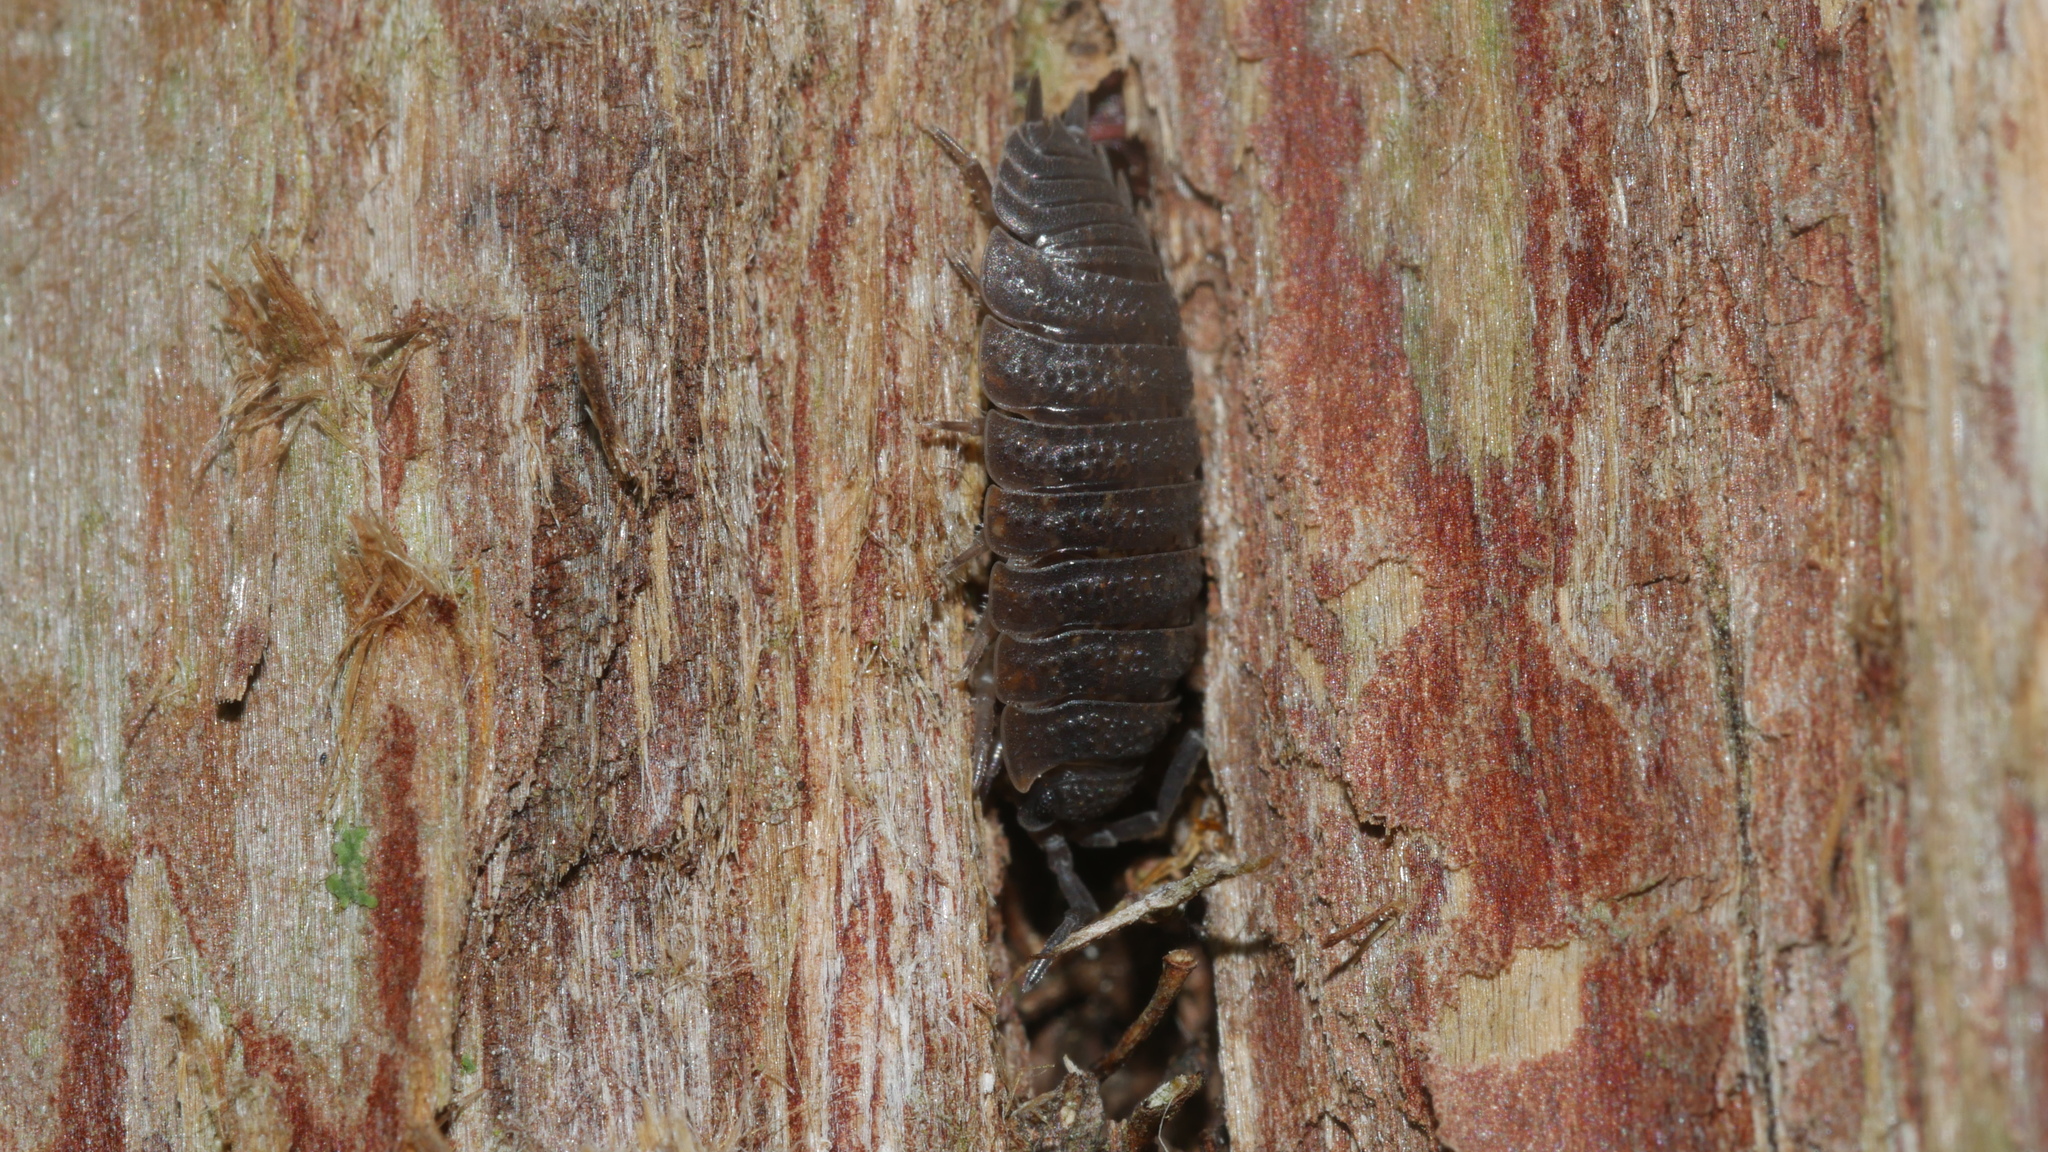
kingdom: Animalia
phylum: Arthropoda
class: Malacostraca
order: Isopoda
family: Porcellionidae
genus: Porcellio
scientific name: Porcellio scaber
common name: Common rough woodlouse
